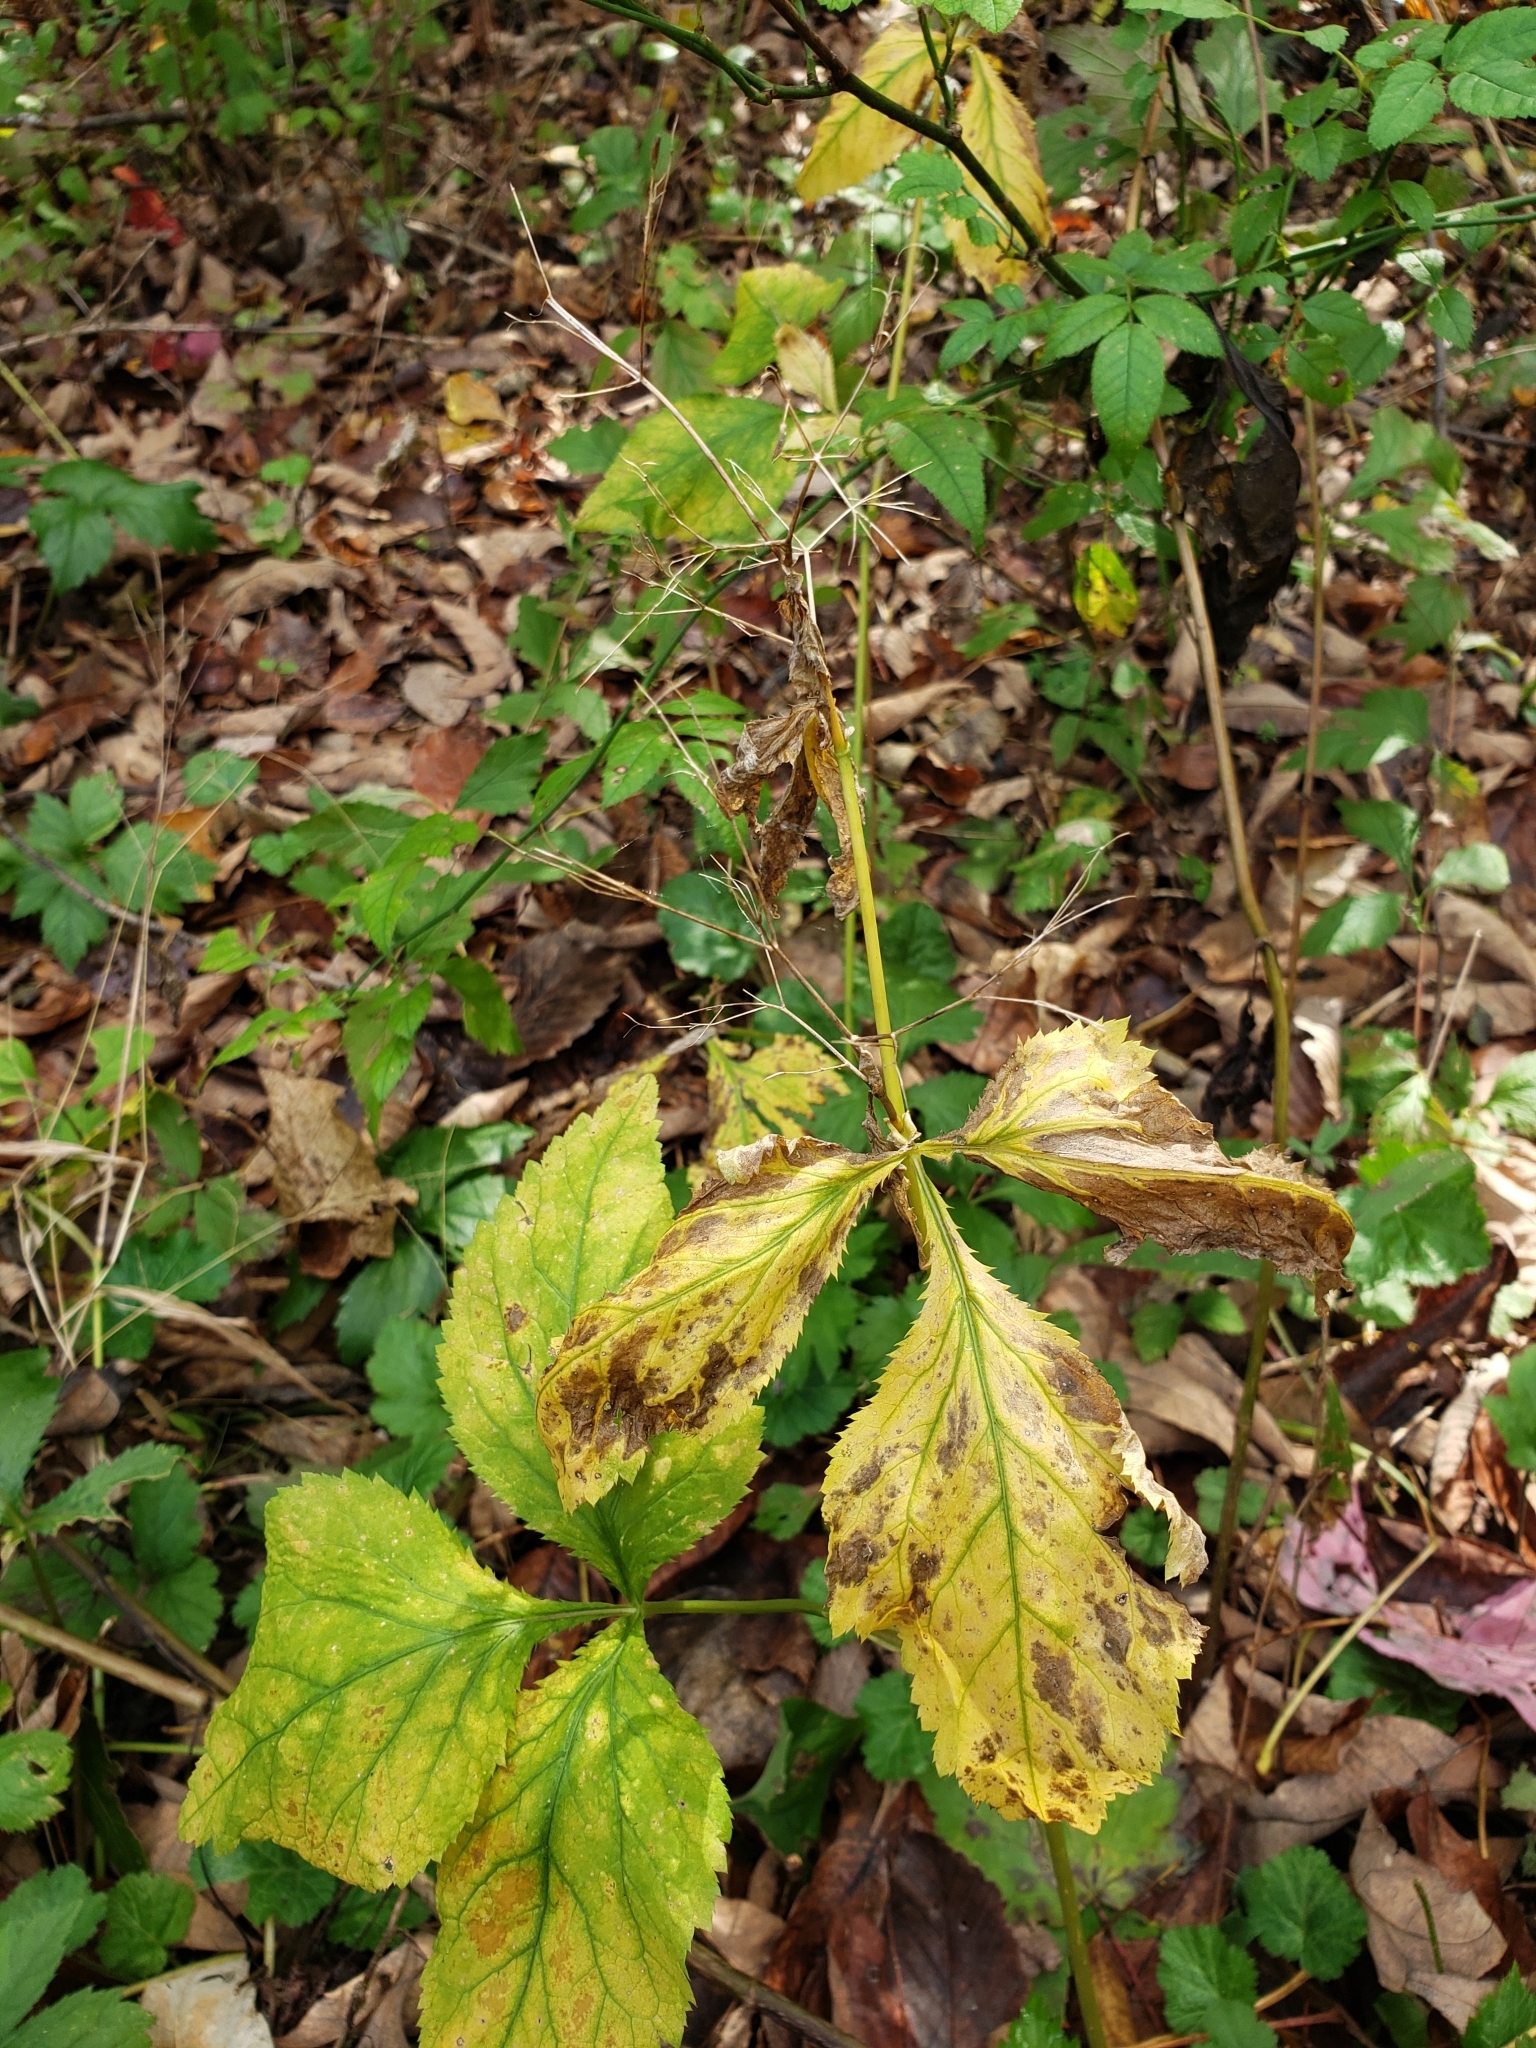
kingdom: Plantae
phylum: Tracheophyta
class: Magnoliopsida
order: Apiales
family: Apiaceae
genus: Cryptotaenia
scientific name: Cryptotaenia canadensis
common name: Honewort
